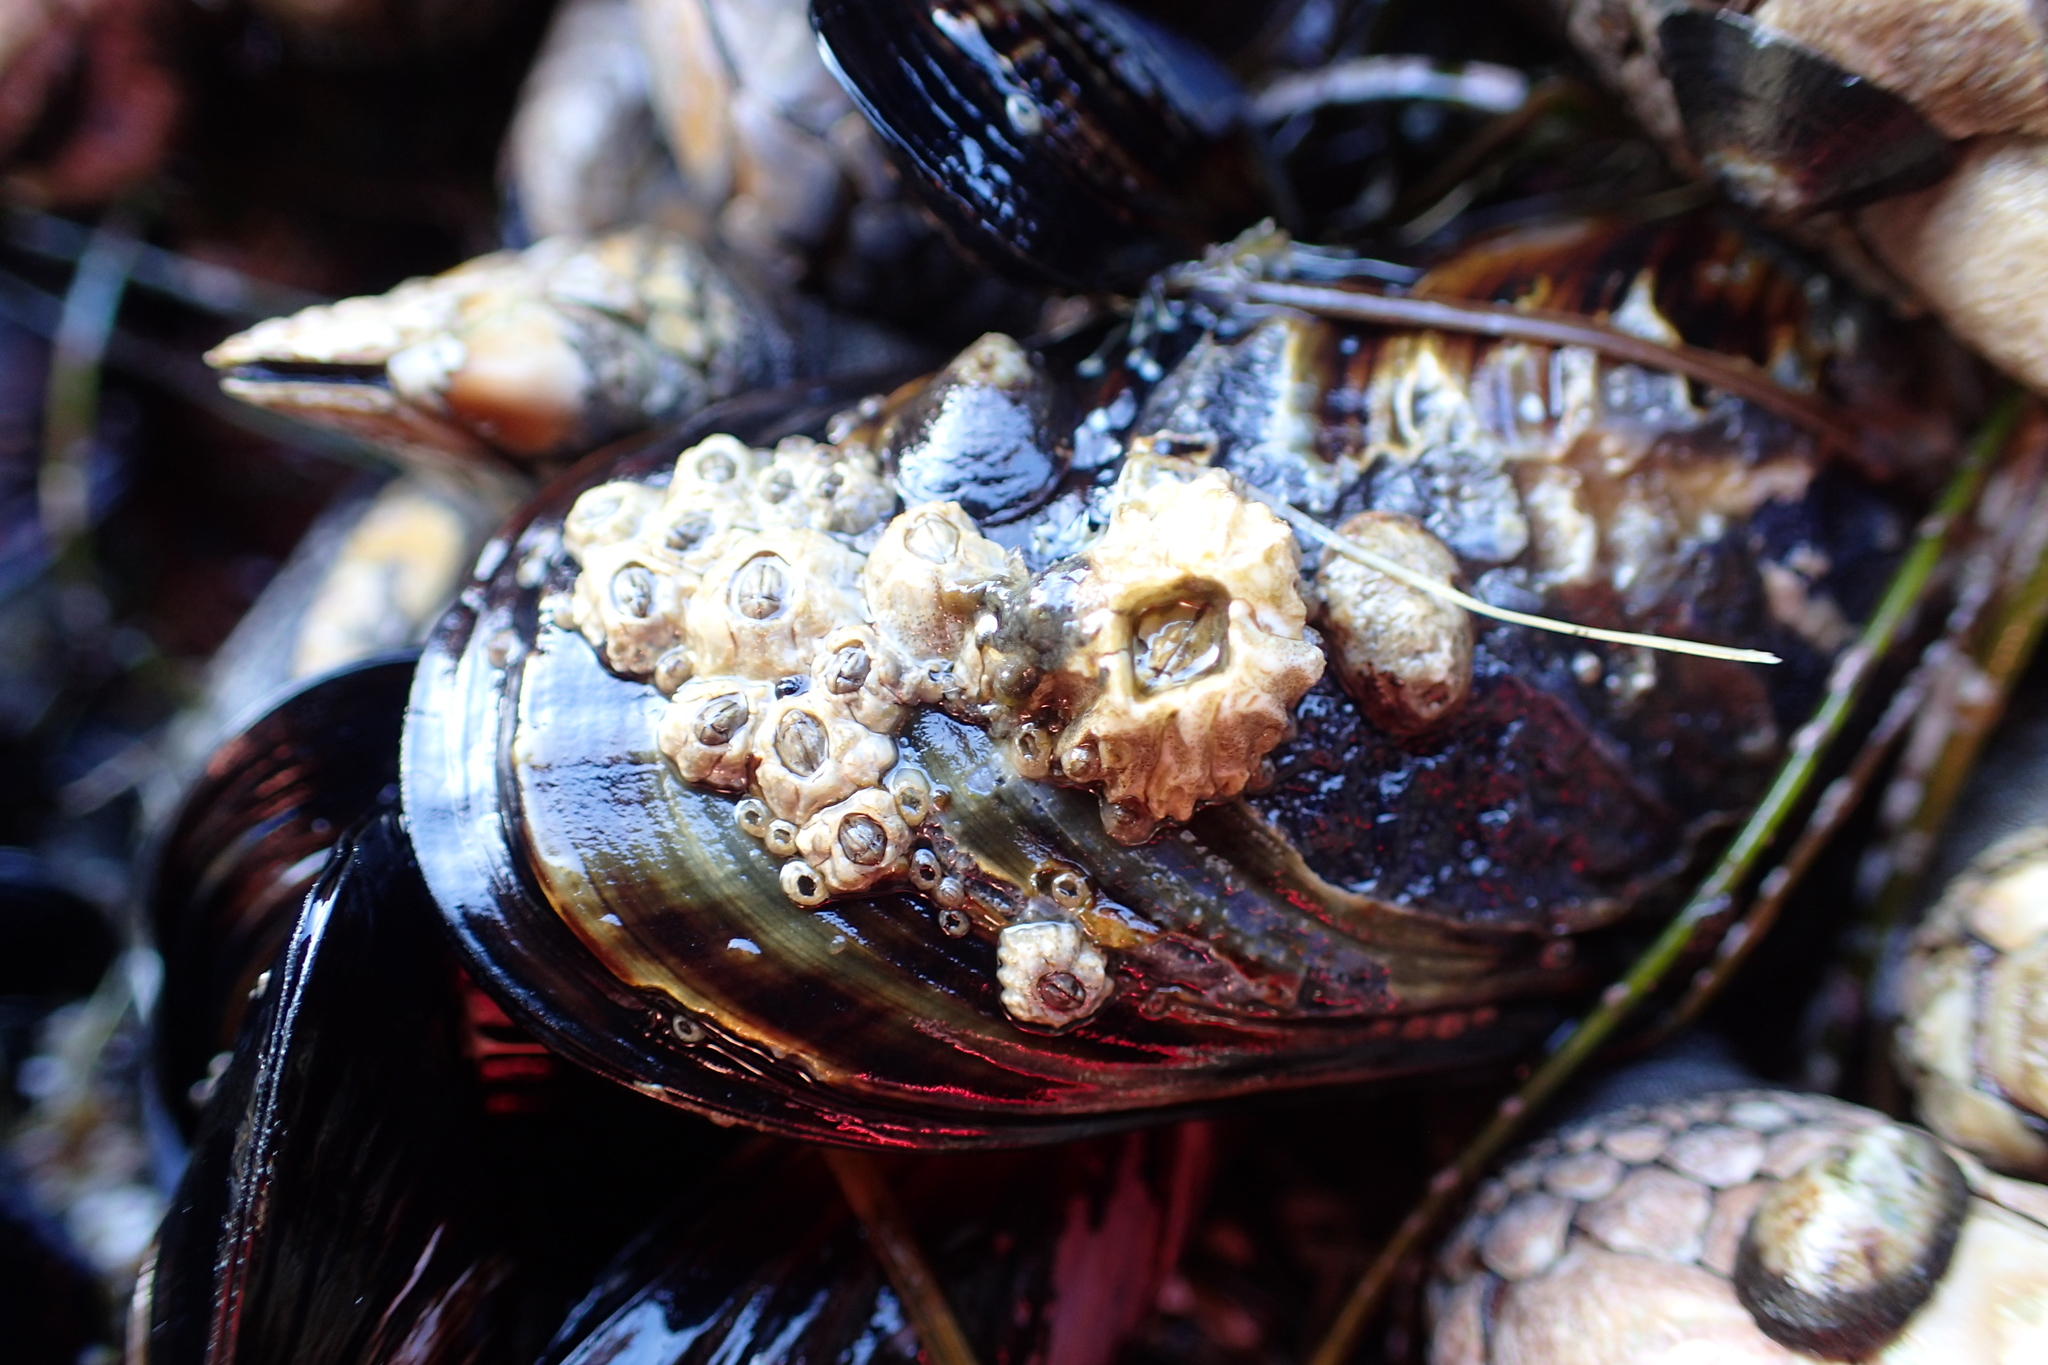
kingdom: Animalia
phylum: Arthropoda
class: Maxillopoda
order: Sessilia
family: Balanidae
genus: Balanus
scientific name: Balanus glandula
